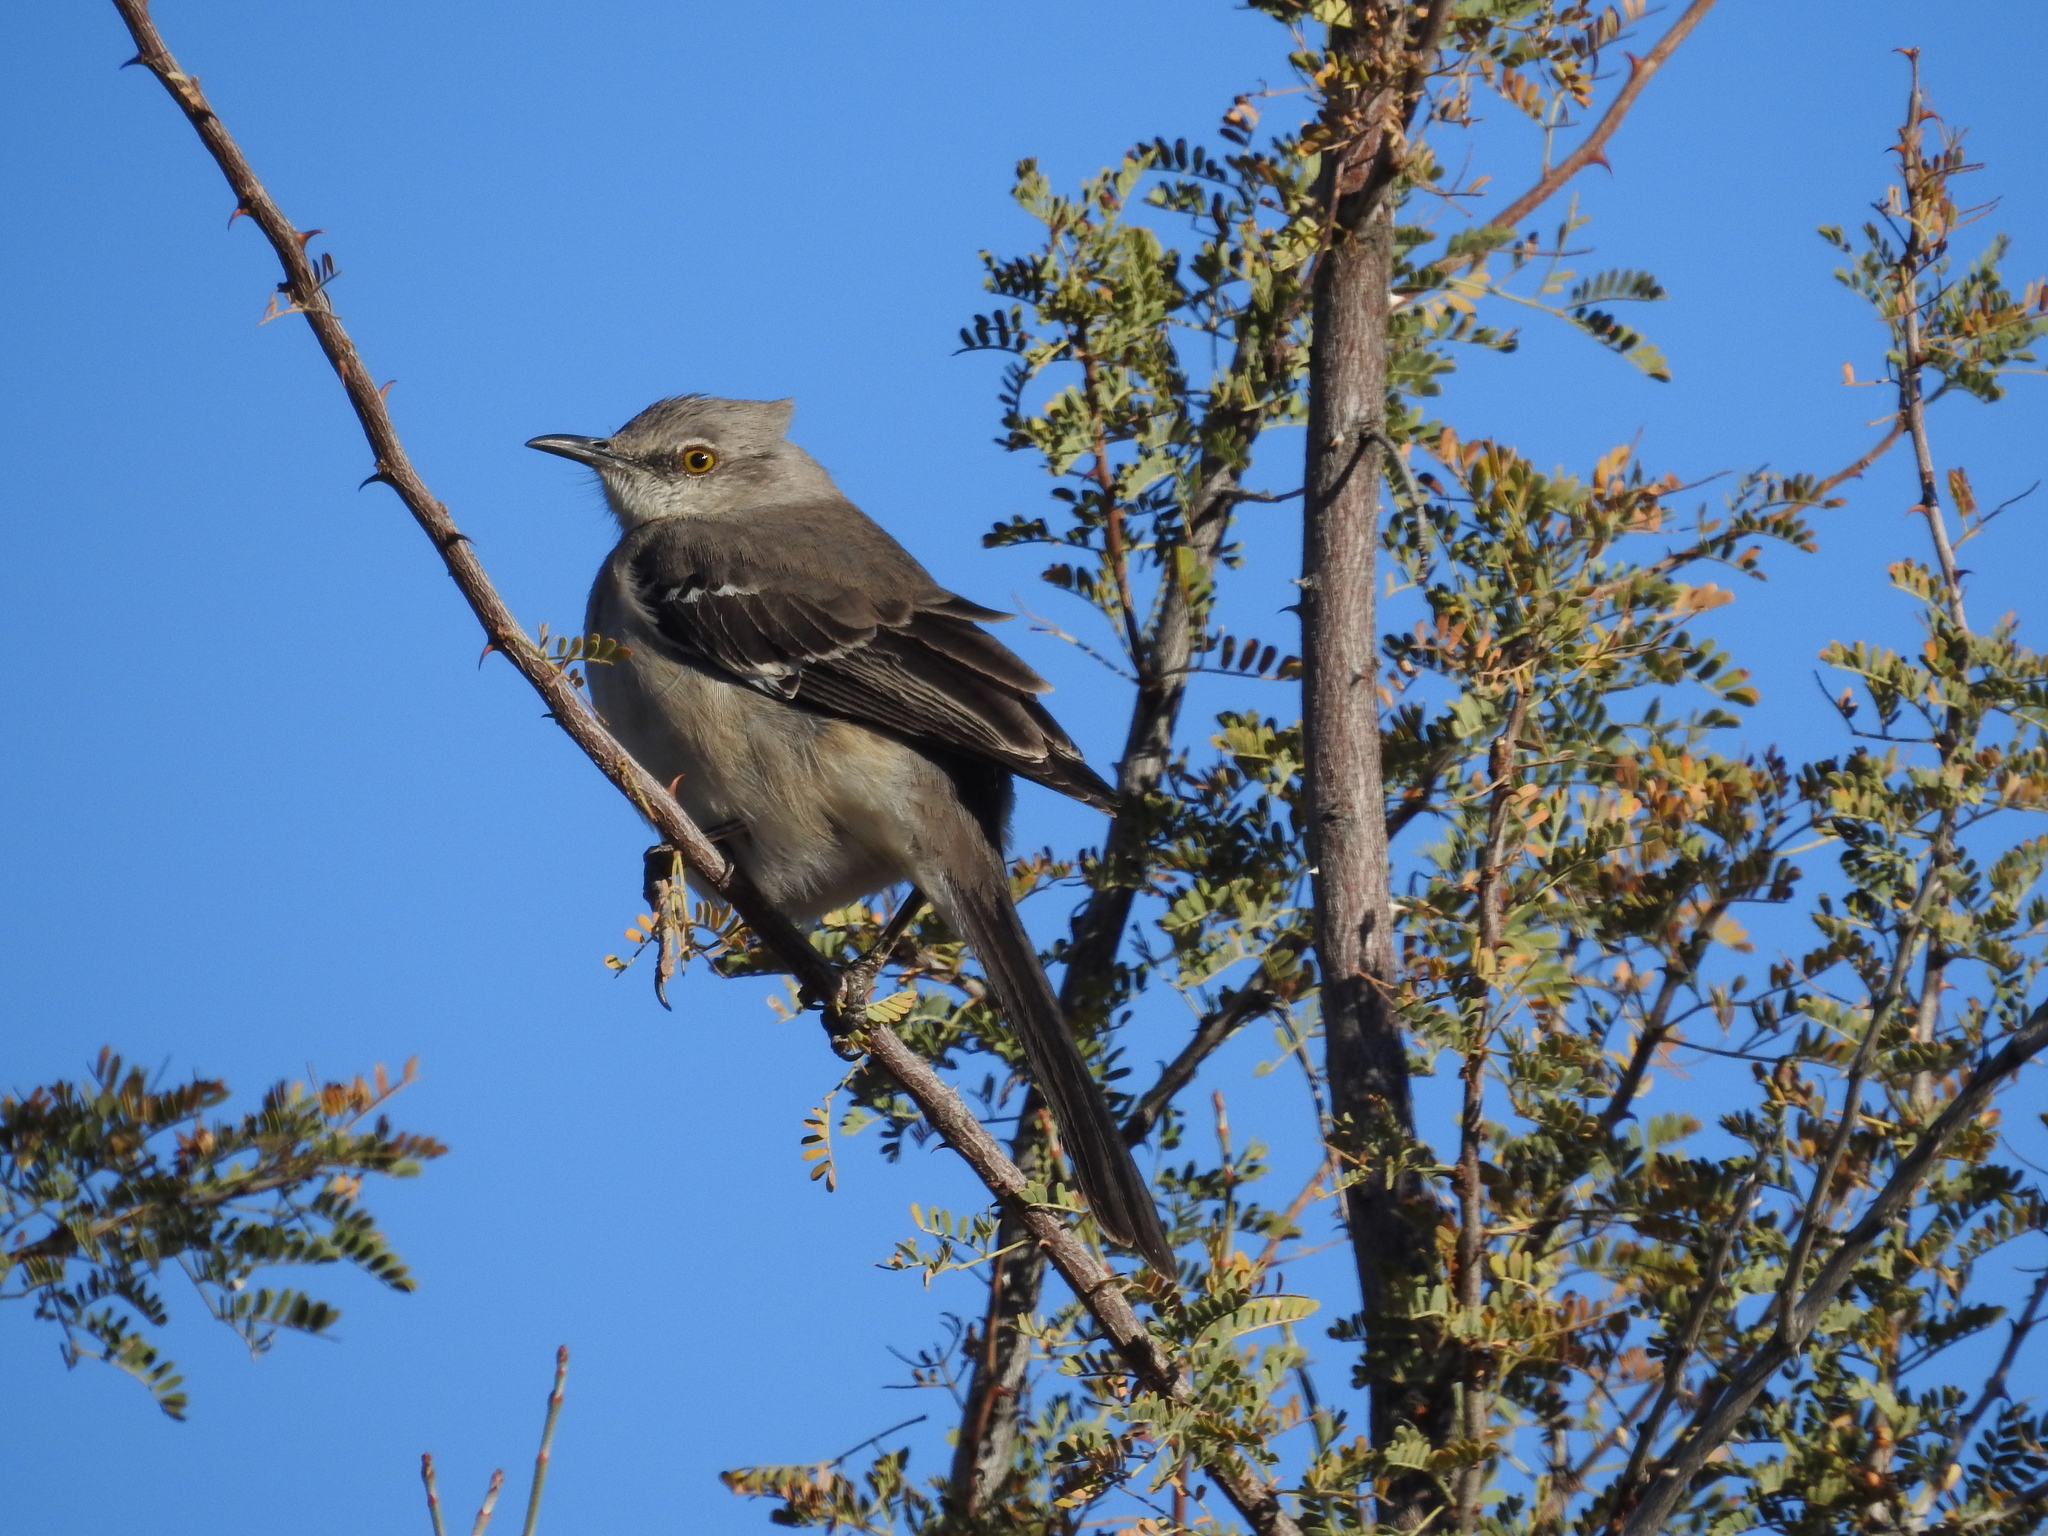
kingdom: Animalia
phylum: Chordata
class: Aves
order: Passeriformes
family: Mimidae
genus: Mimus
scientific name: Mimus polyglottos
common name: Northern mockingbird
